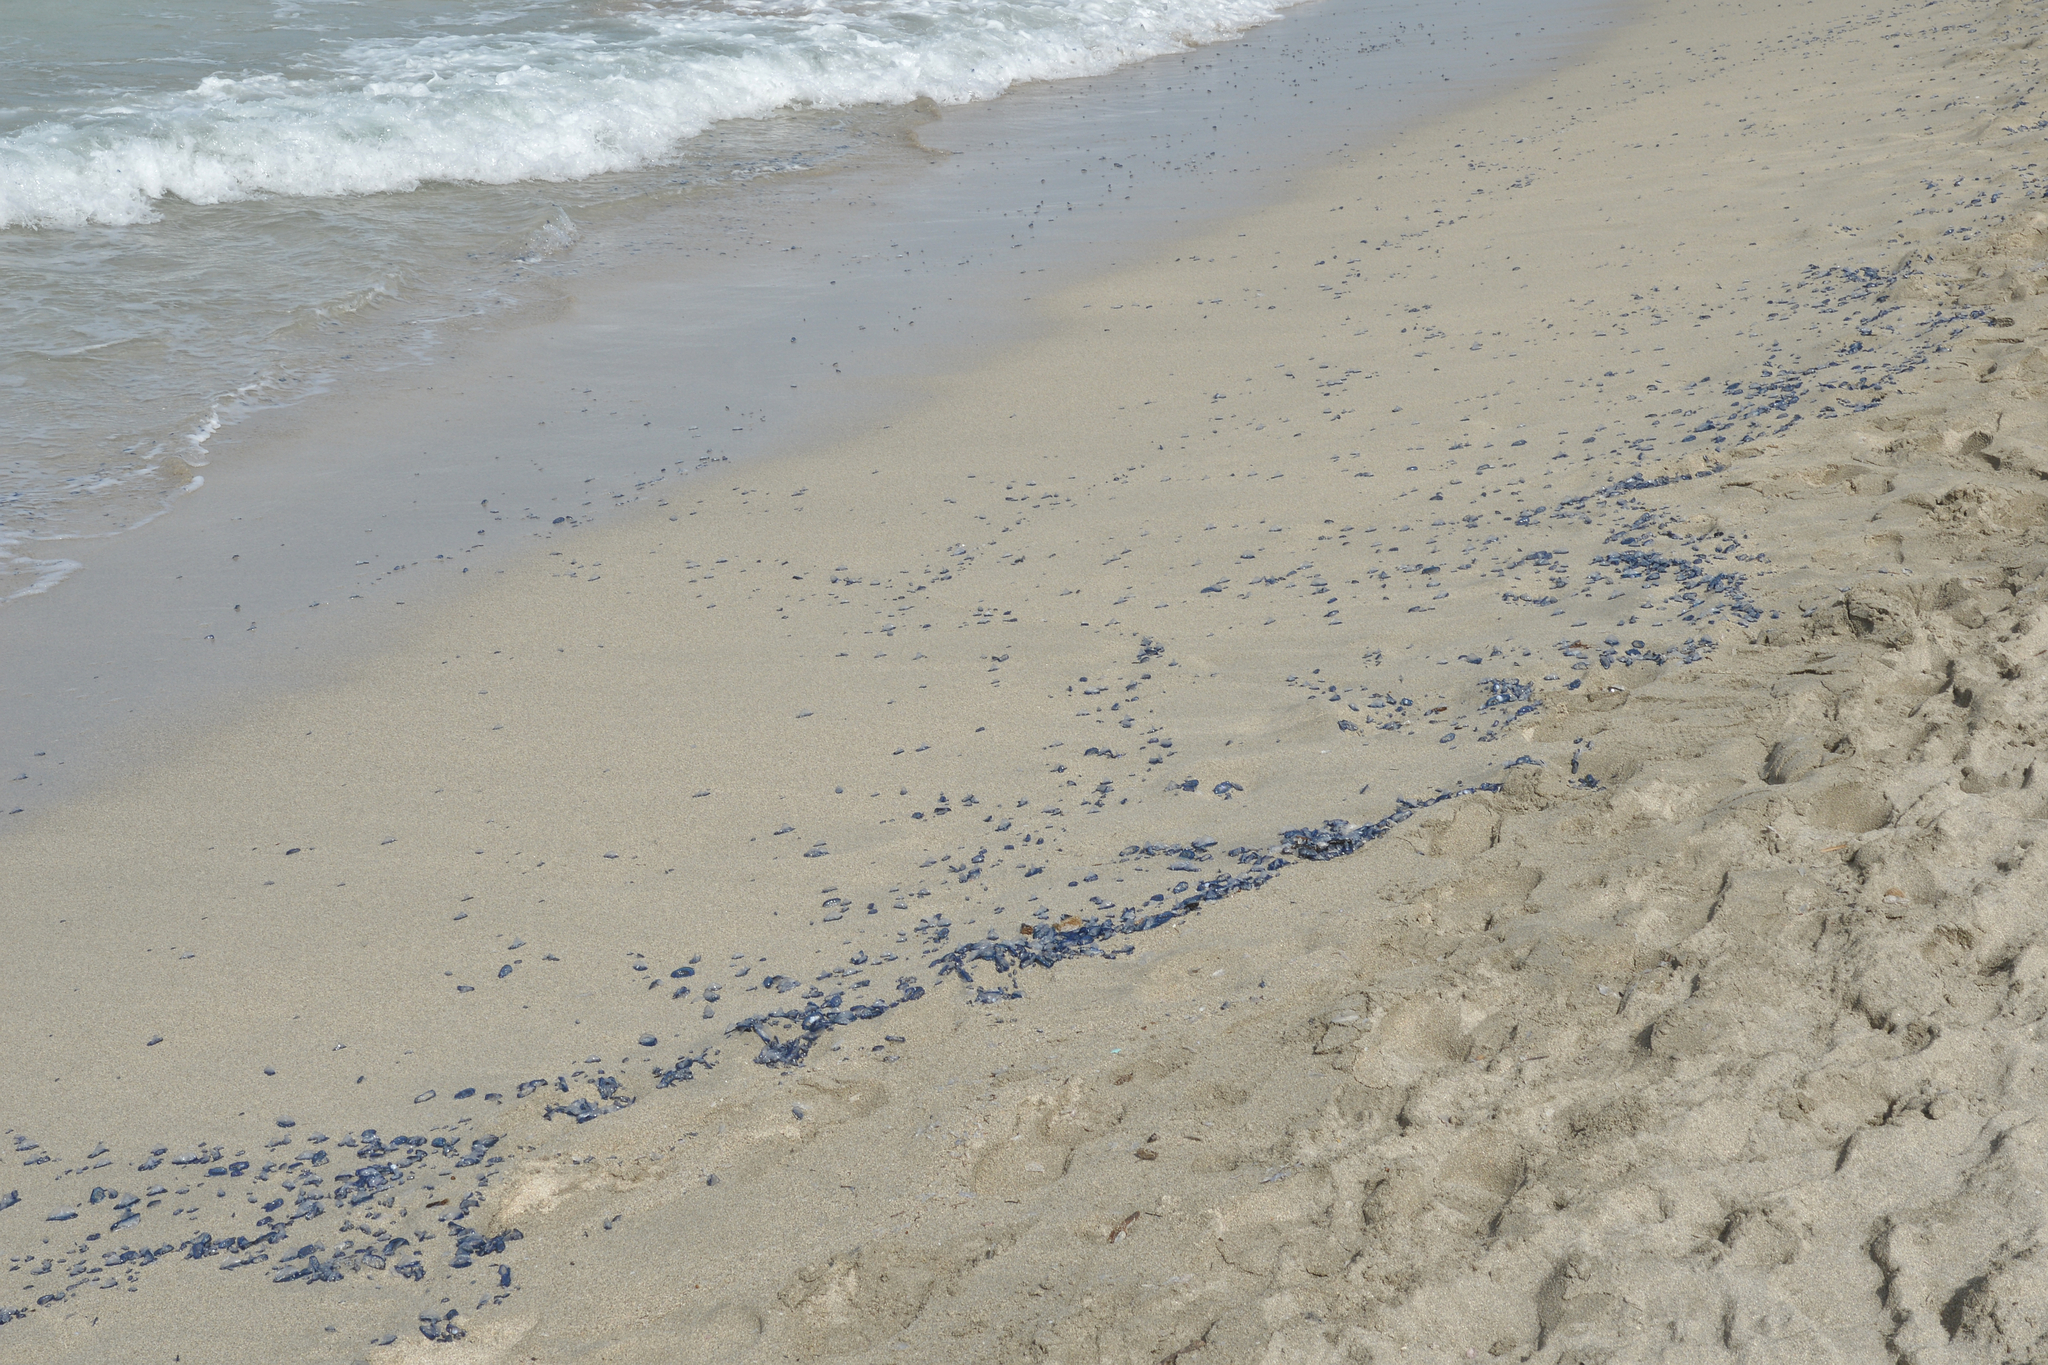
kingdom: Animalia
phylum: Cnidaria
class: Hydrozoa
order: Anthoathecata
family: Porpitidae
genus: Velella
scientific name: Velella velella
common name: By-the-wind-sailor
